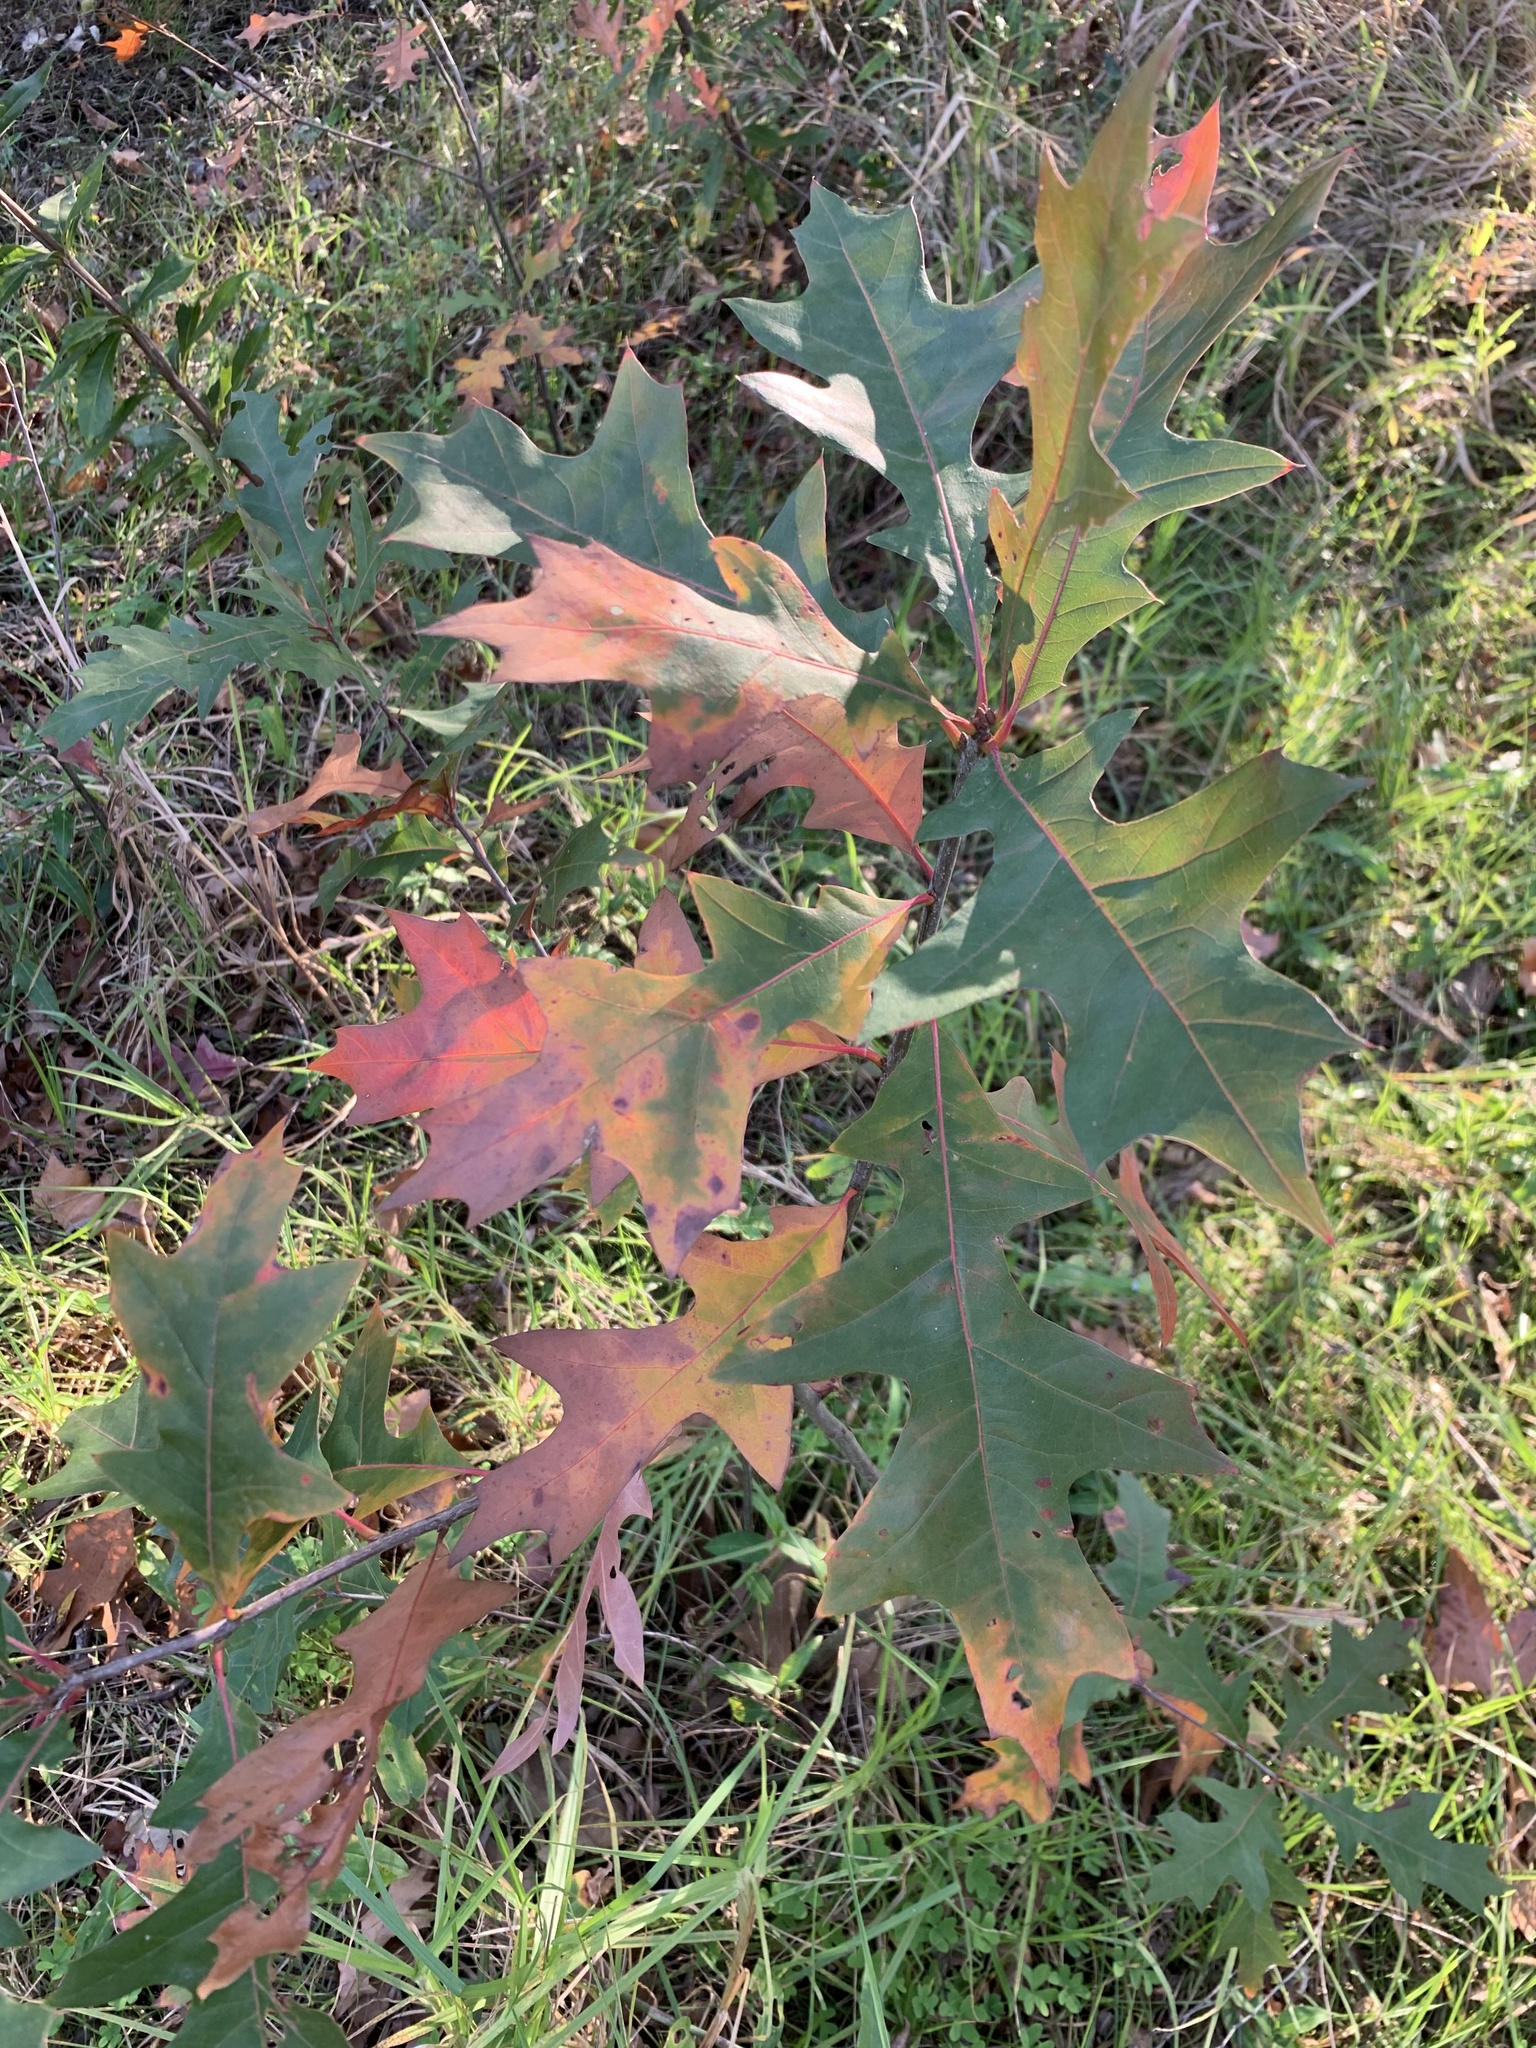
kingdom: Plantae
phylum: Tracheophyta
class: Magnoliopsida
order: Fagales
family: Fagaceae
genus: Quercus
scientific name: Quercus palustris
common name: Pin oak
